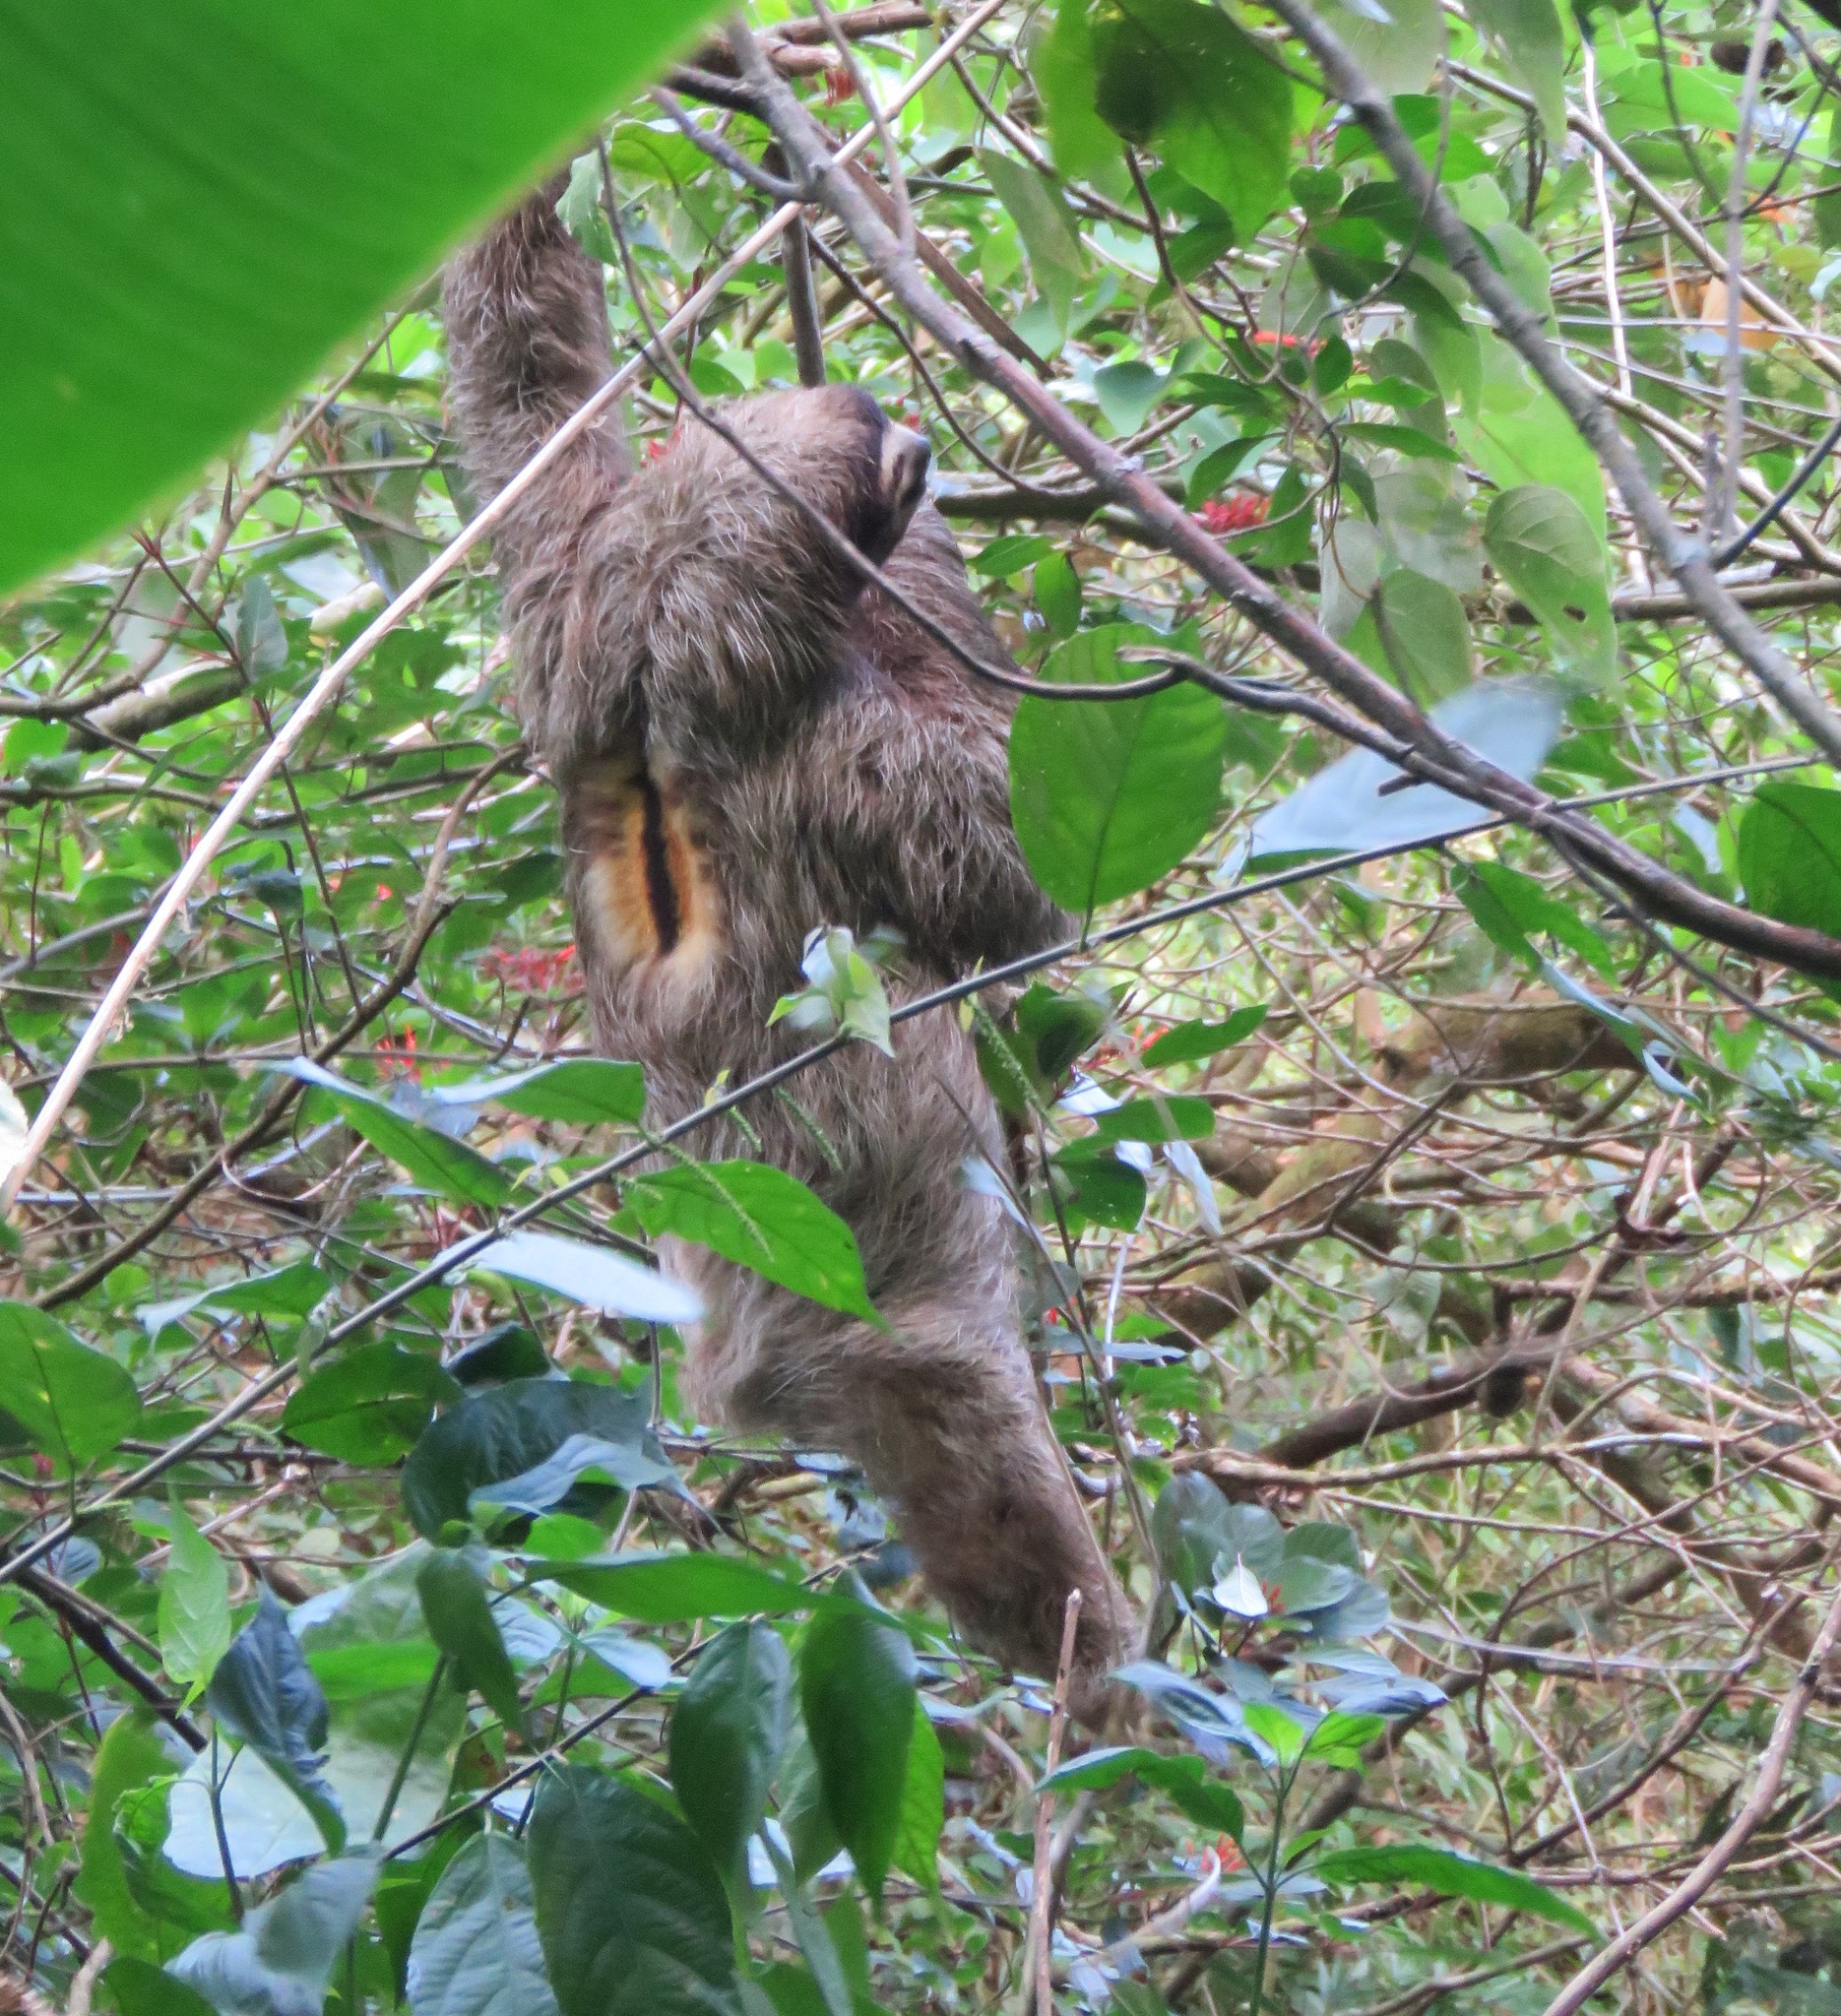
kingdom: Animalia
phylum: Chordata
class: Mammalia
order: Pilosa
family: Bradypodidae
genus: Bradypus
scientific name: Bradypus variegatus
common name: Brown-throated three-toed sloth
